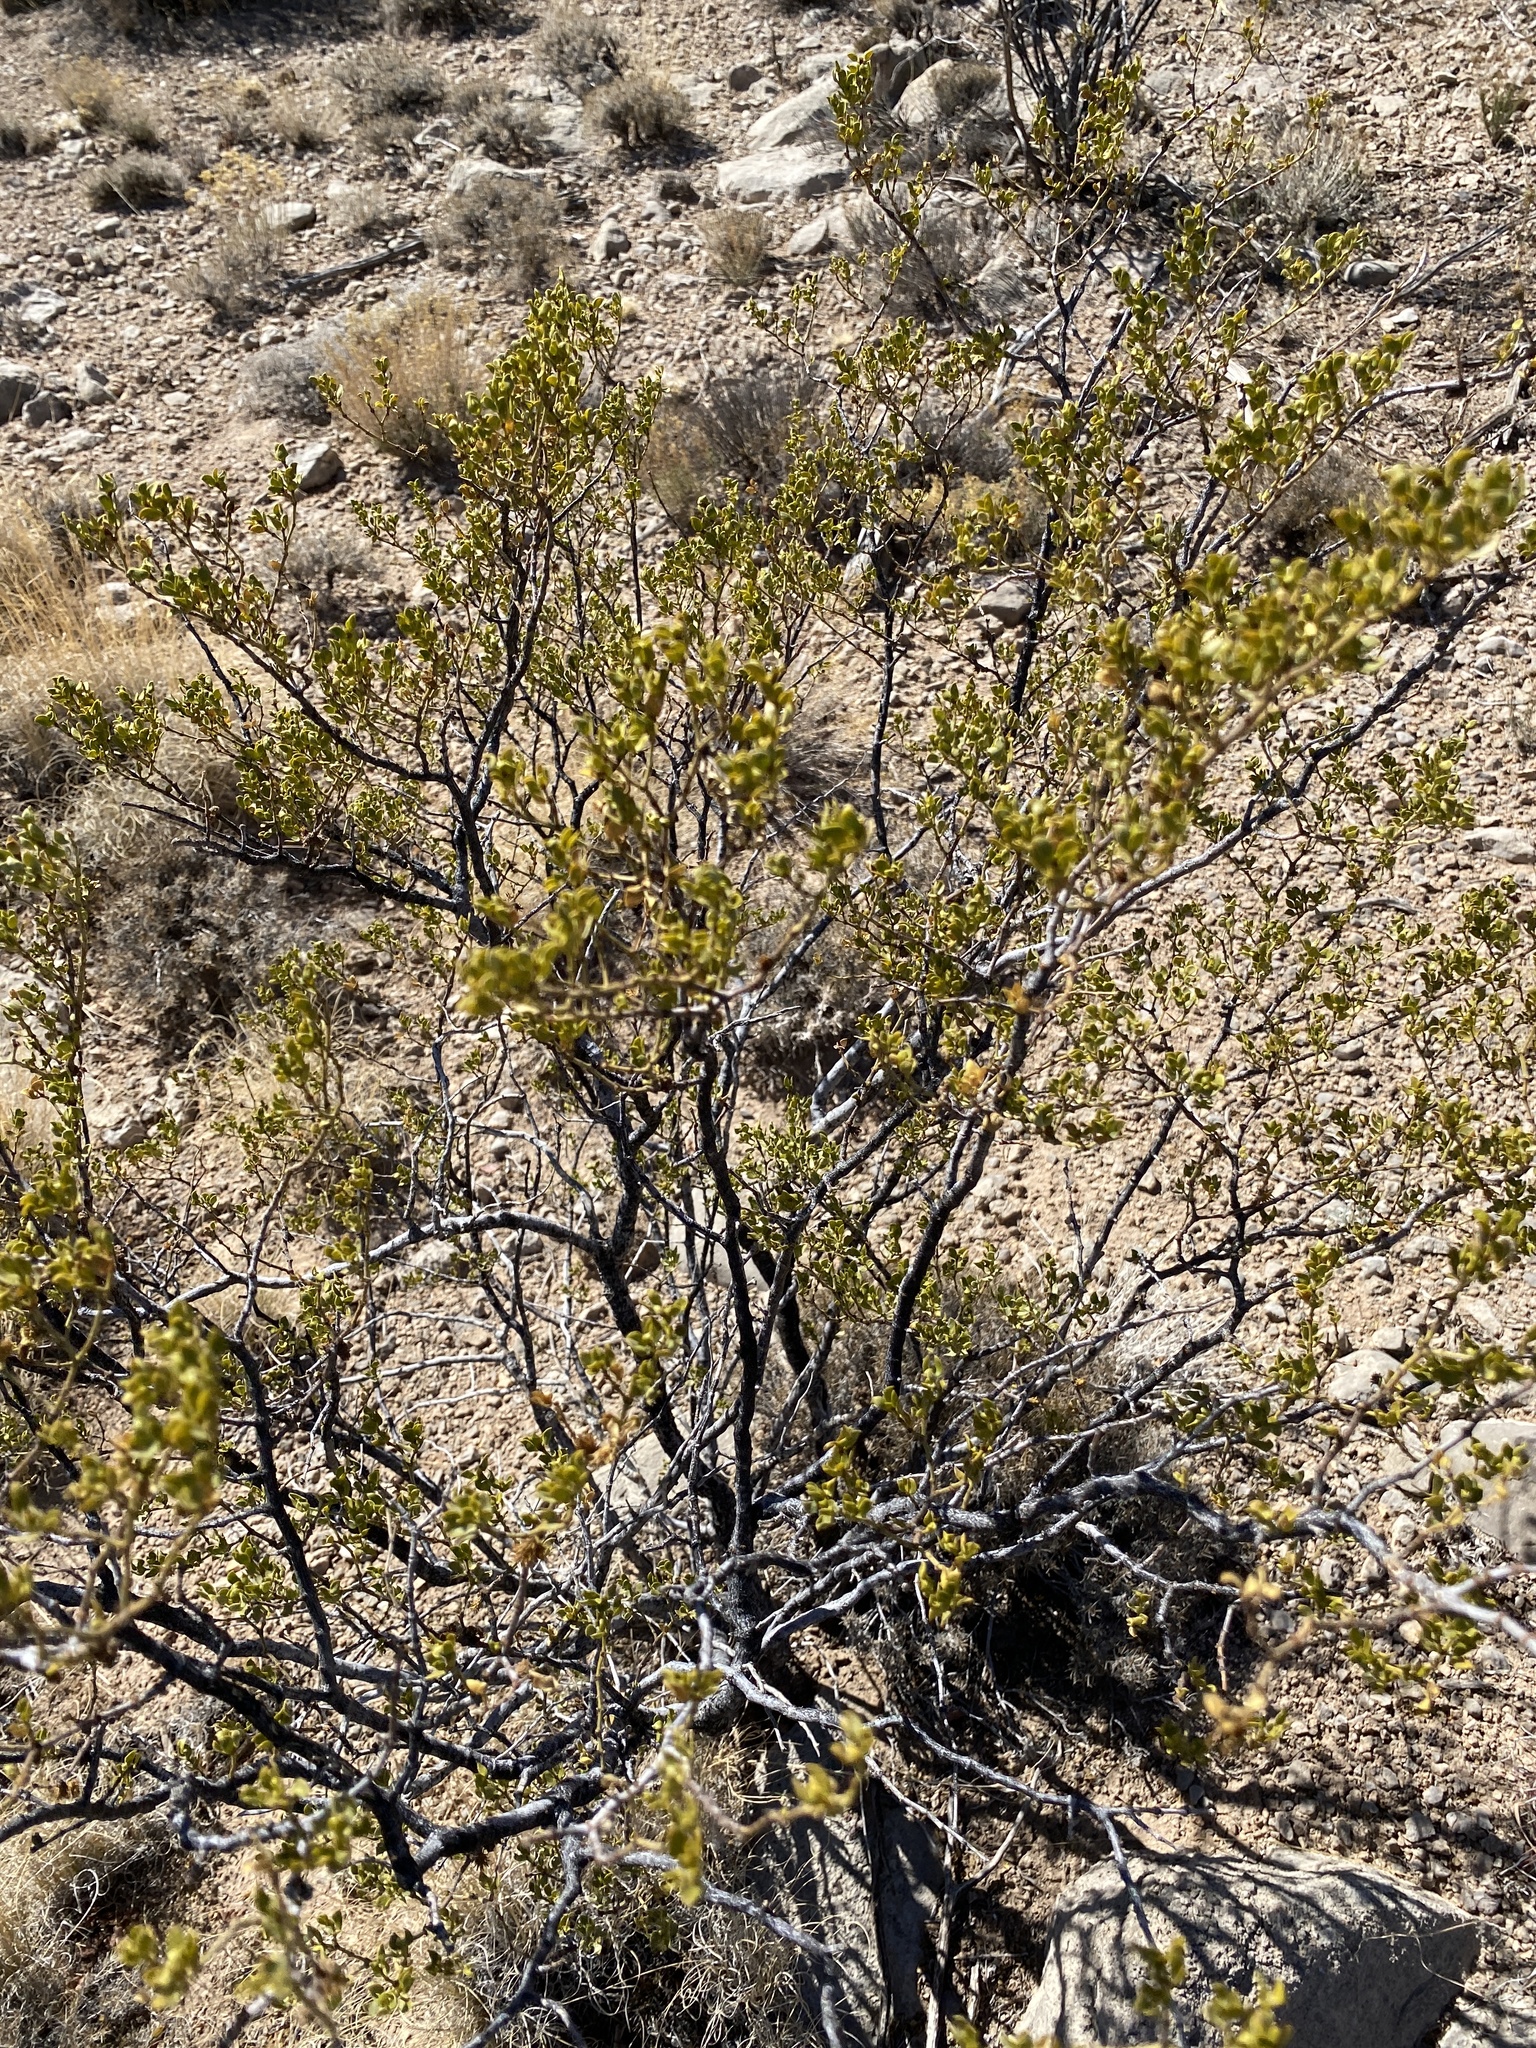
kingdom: Plantae
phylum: Tracheophyta
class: Magnoliopsida
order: Zygophyllales
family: Zygophyllaceae
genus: Larrea
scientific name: Larrea tridentata
